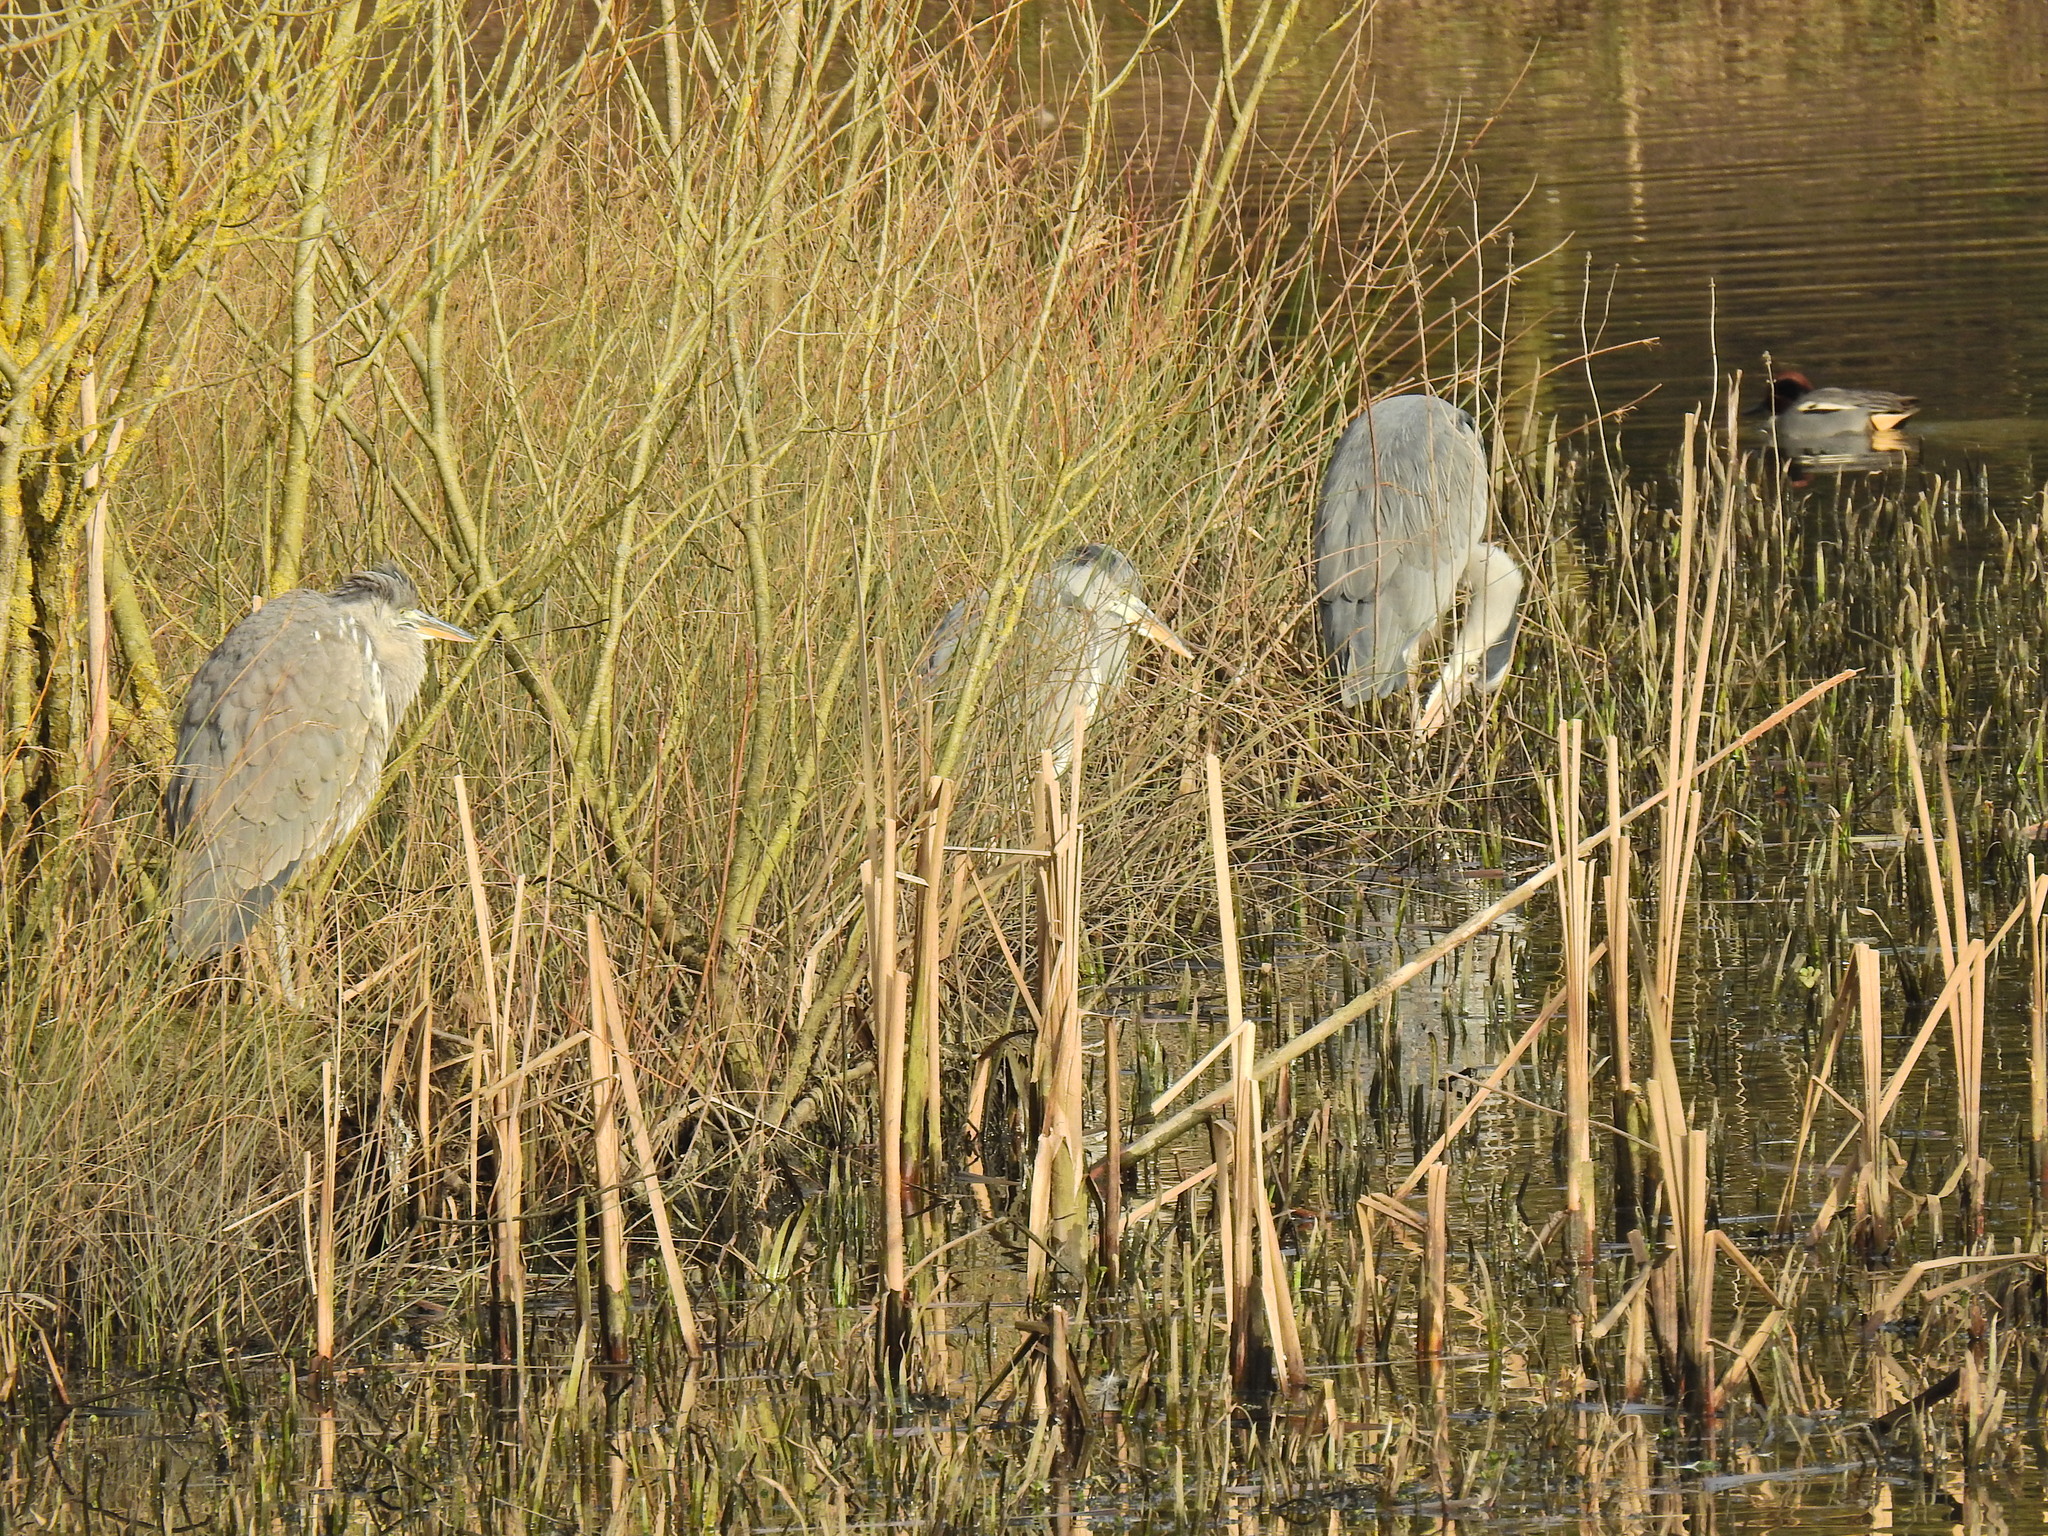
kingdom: Animalia
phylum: Chordata
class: Aves
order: Pelecaniformes
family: Ardeidae
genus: Ardea
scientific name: Ardea cinerea
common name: Grey heron
